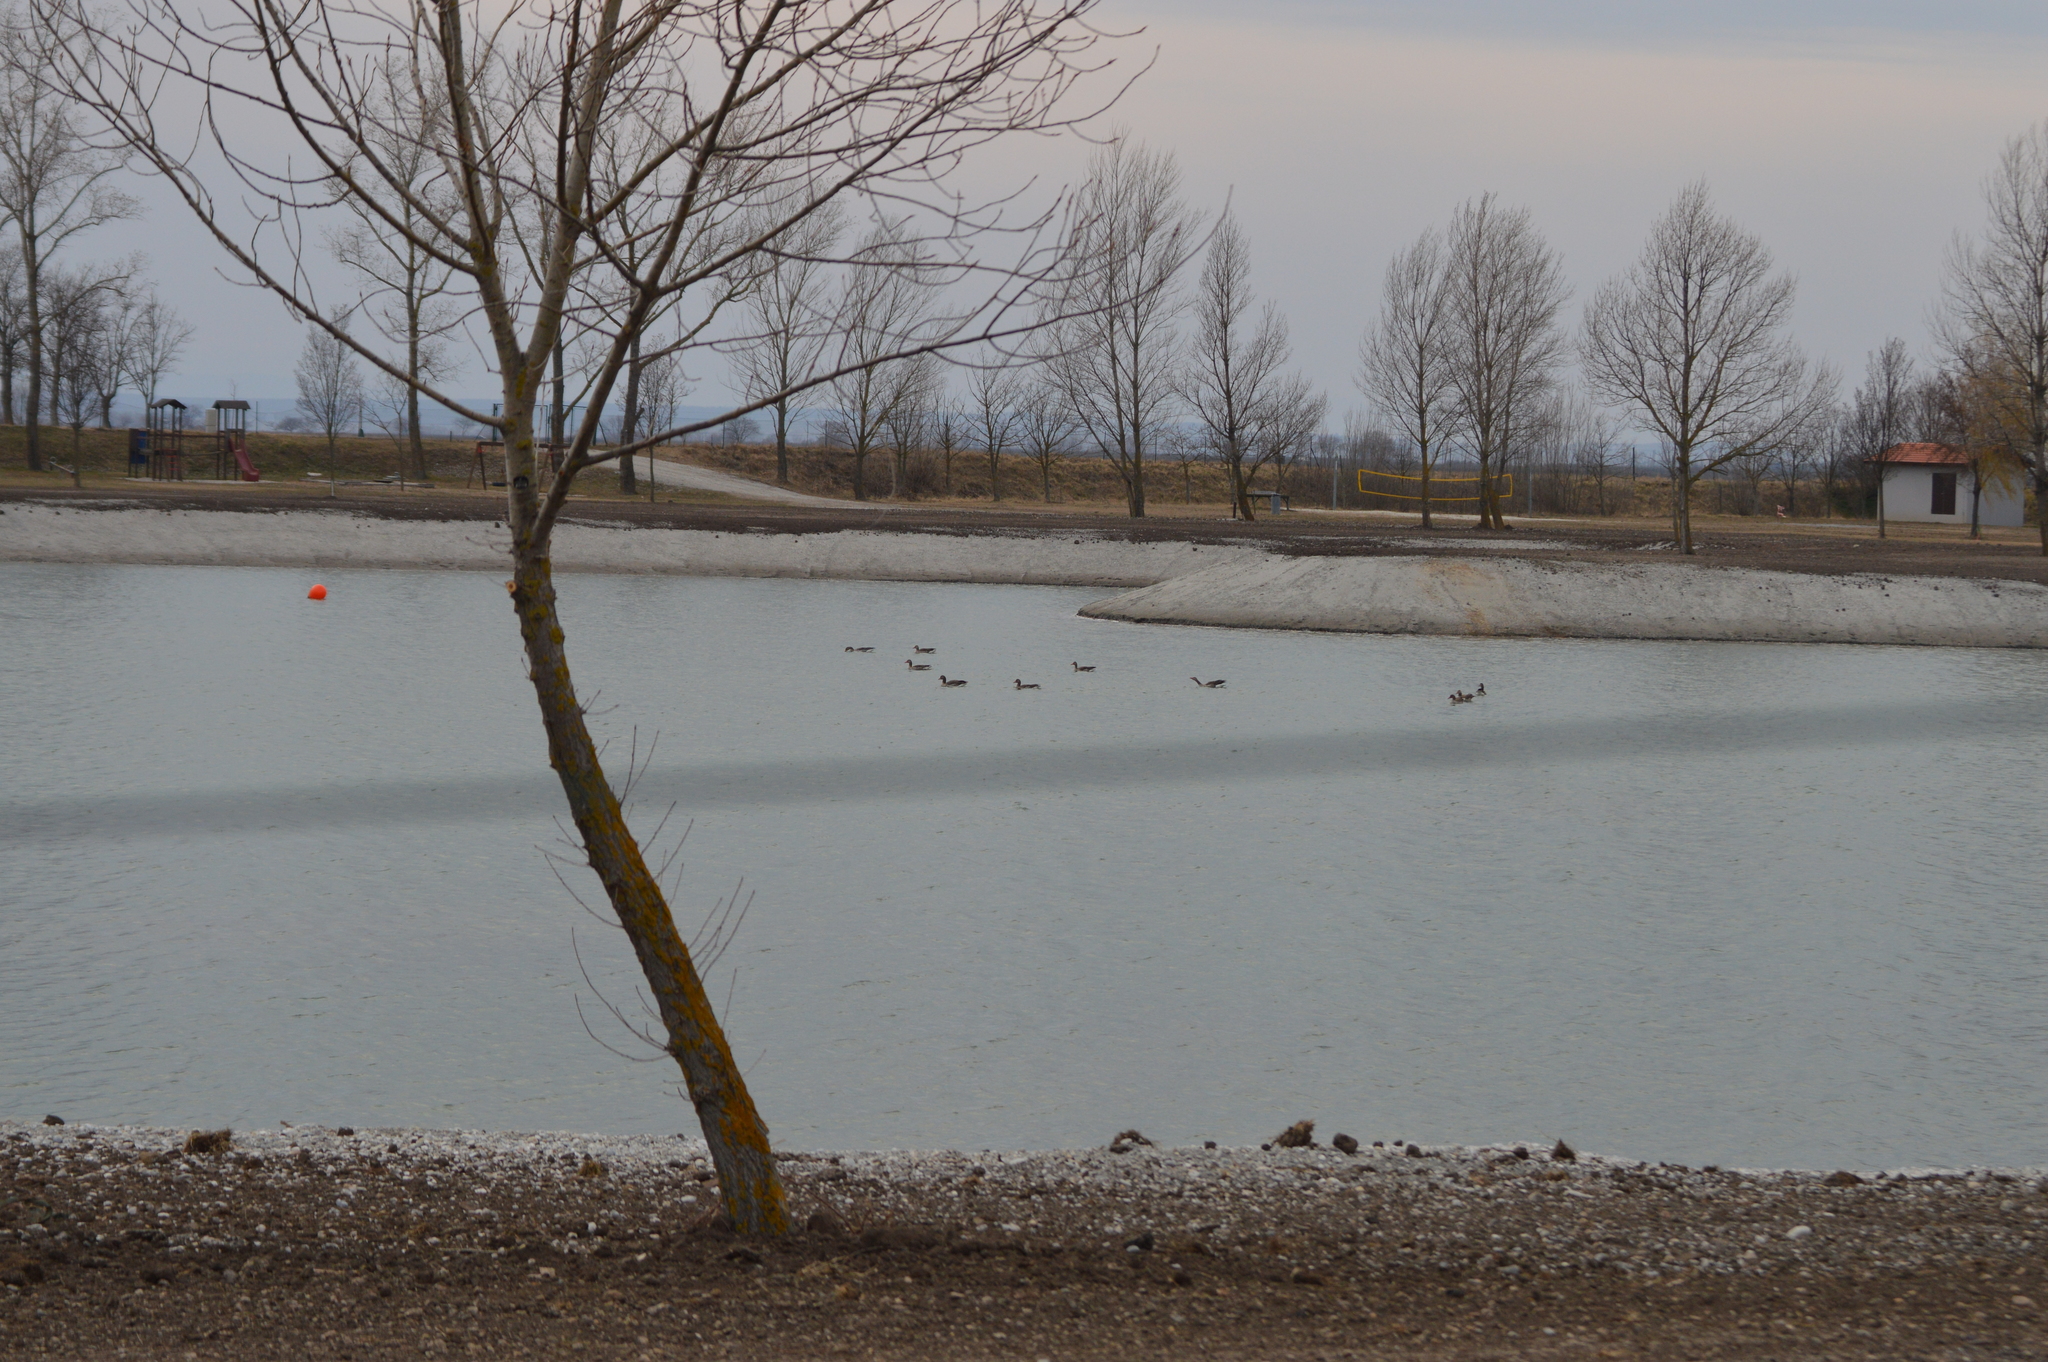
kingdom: Animalia
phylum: Chordata
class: Aves
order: Anseriformes
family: Anatidae
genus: Anser
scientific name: Anser anser
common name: Greylag goose
